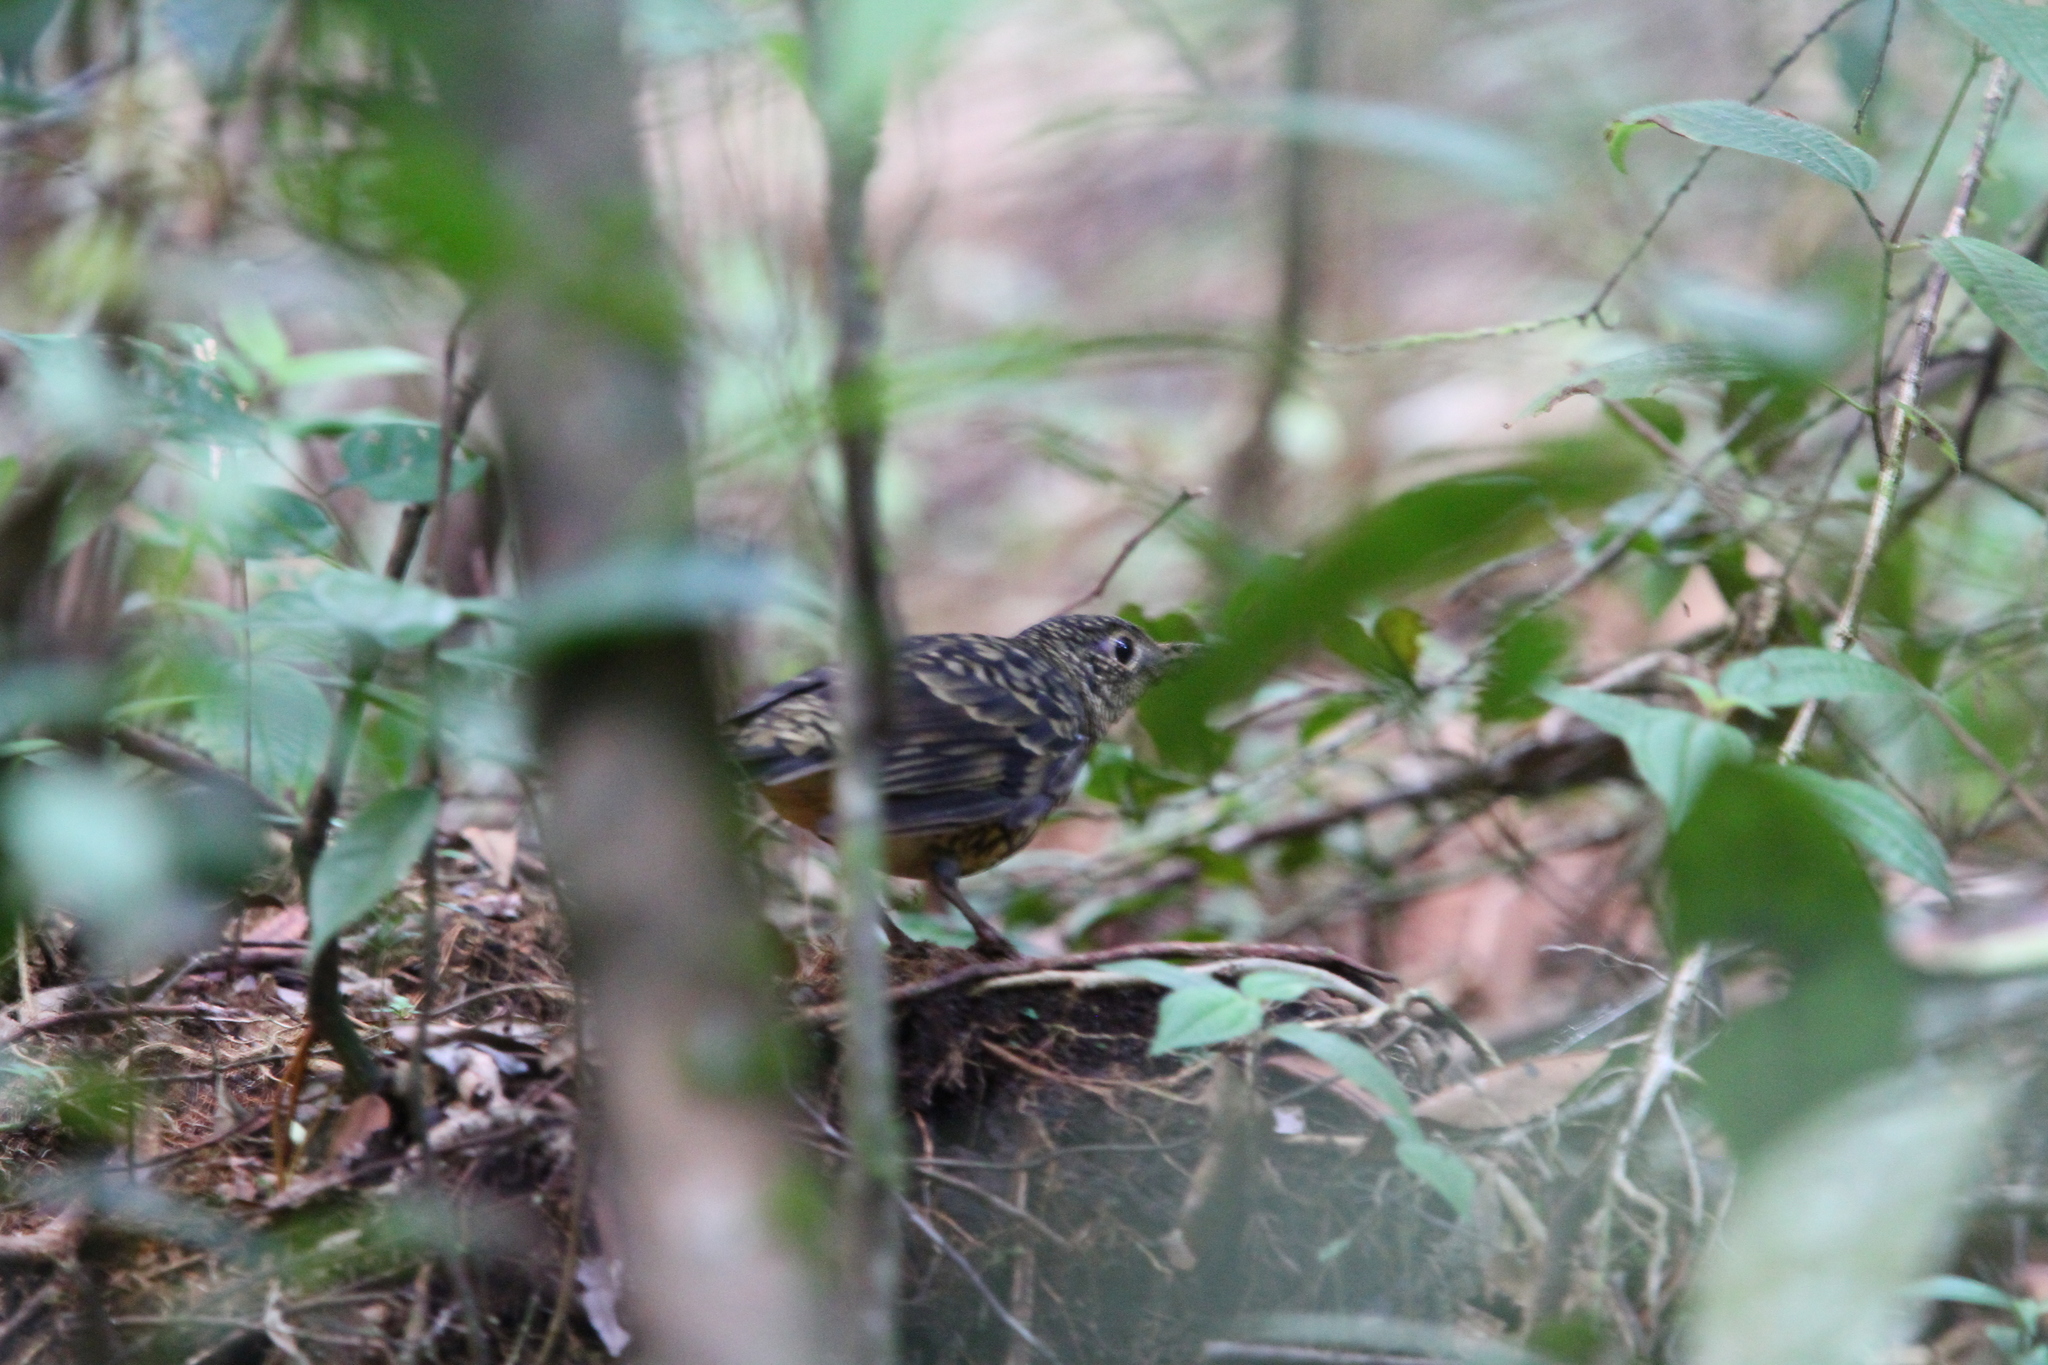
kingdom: Animalia
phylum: Chordata
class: Aves
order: Passeriformes
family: Turdidae
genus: Zoothera
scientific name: Zoothera imbricata
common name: Sri lanka thrush
